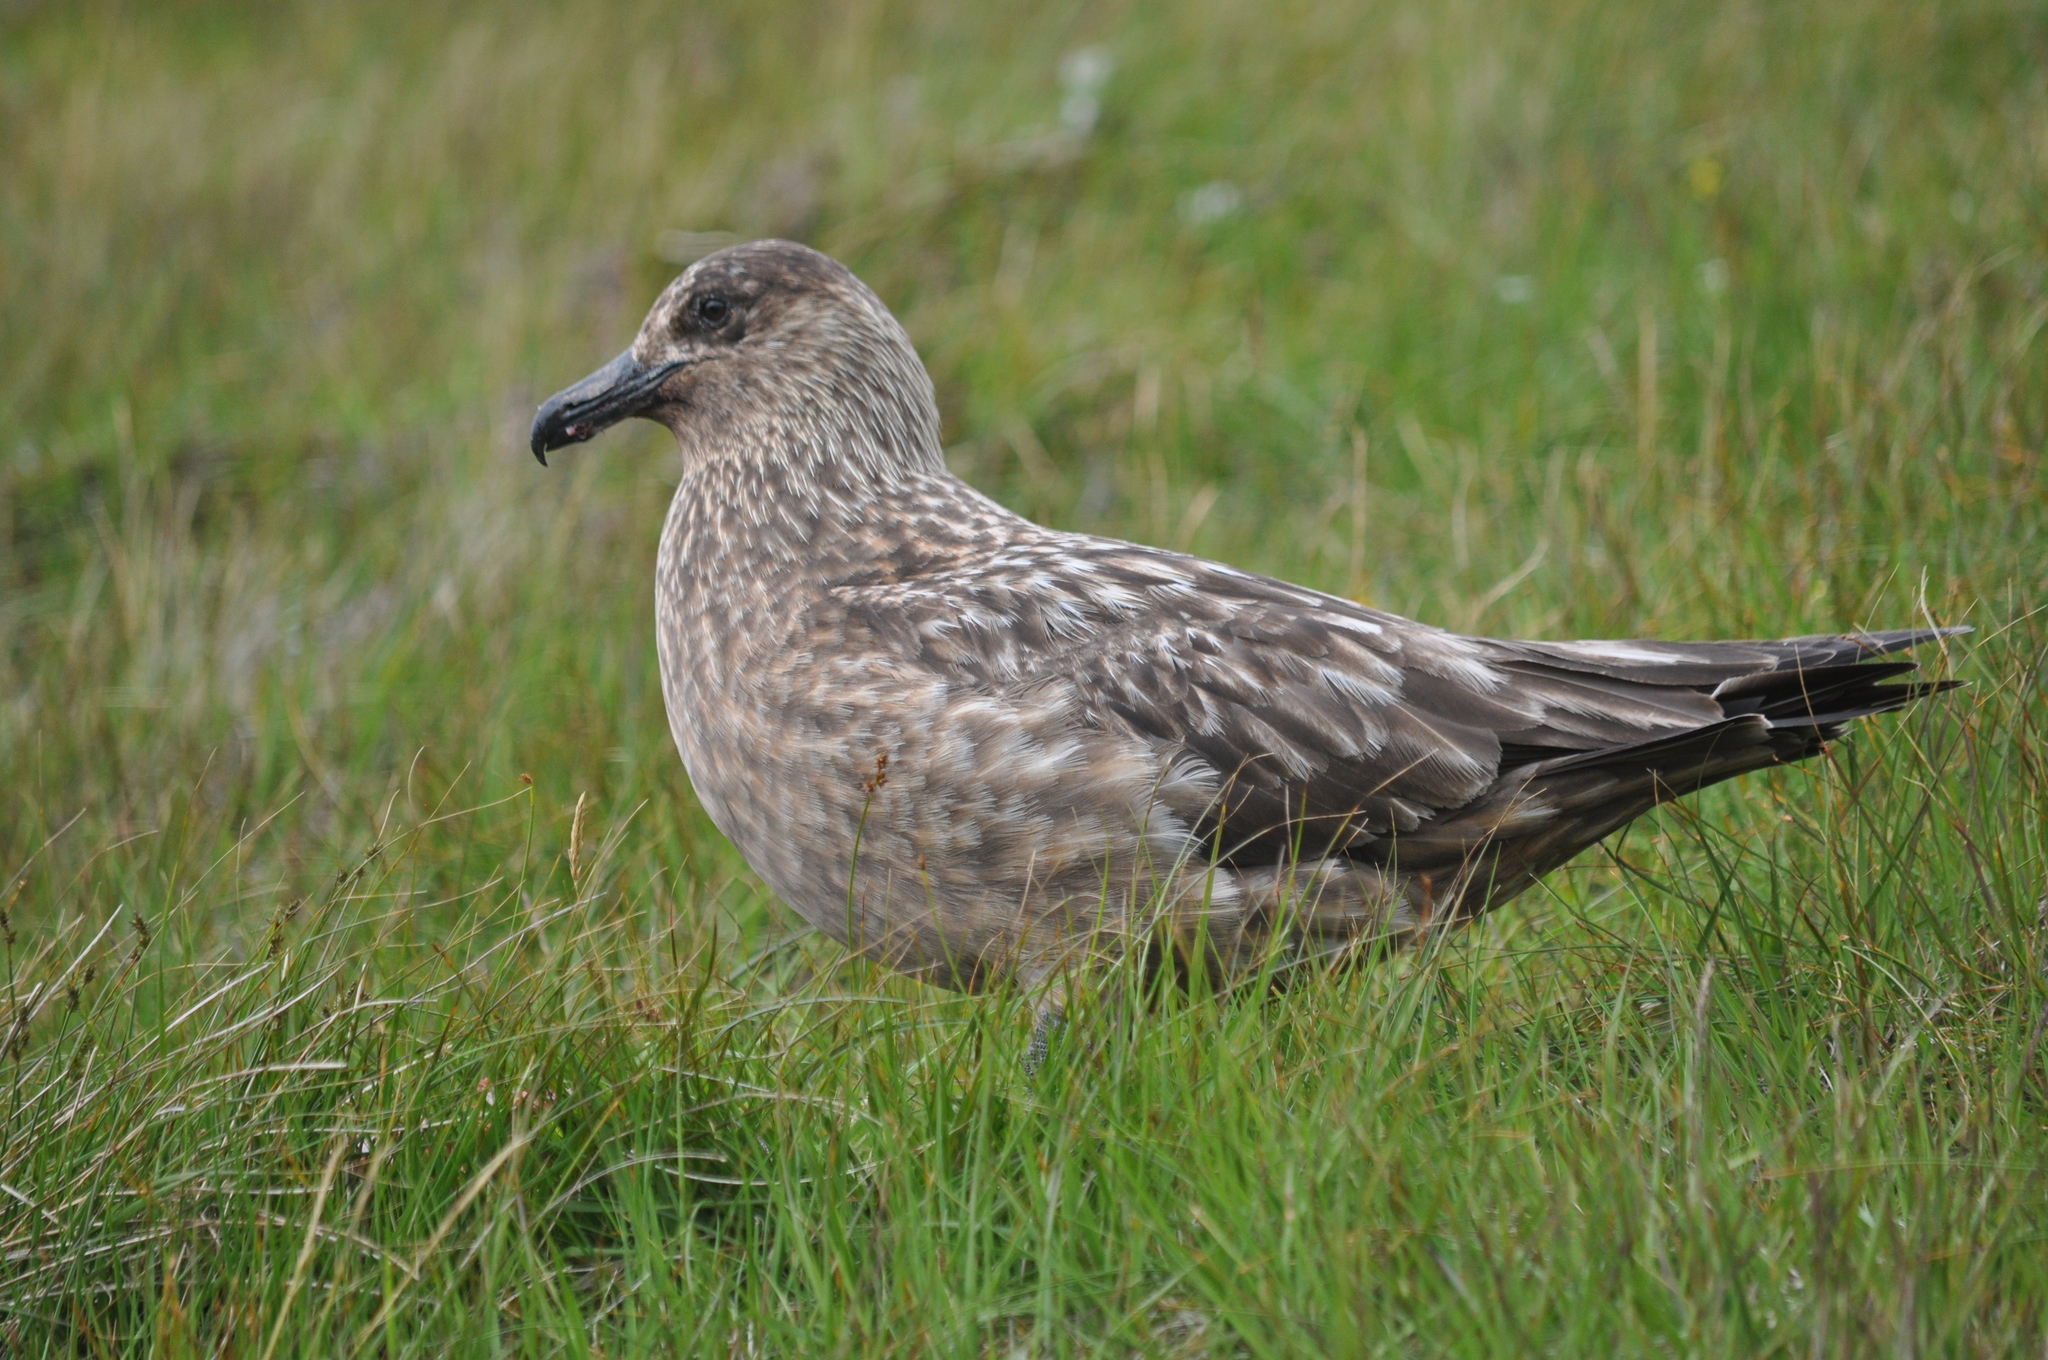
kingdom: Animalia
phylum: Chordata
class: Aves
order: Charadriiformes
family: Stercorariidae
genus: Stercorarius
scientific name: Stercorarius skua
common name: Great skua
